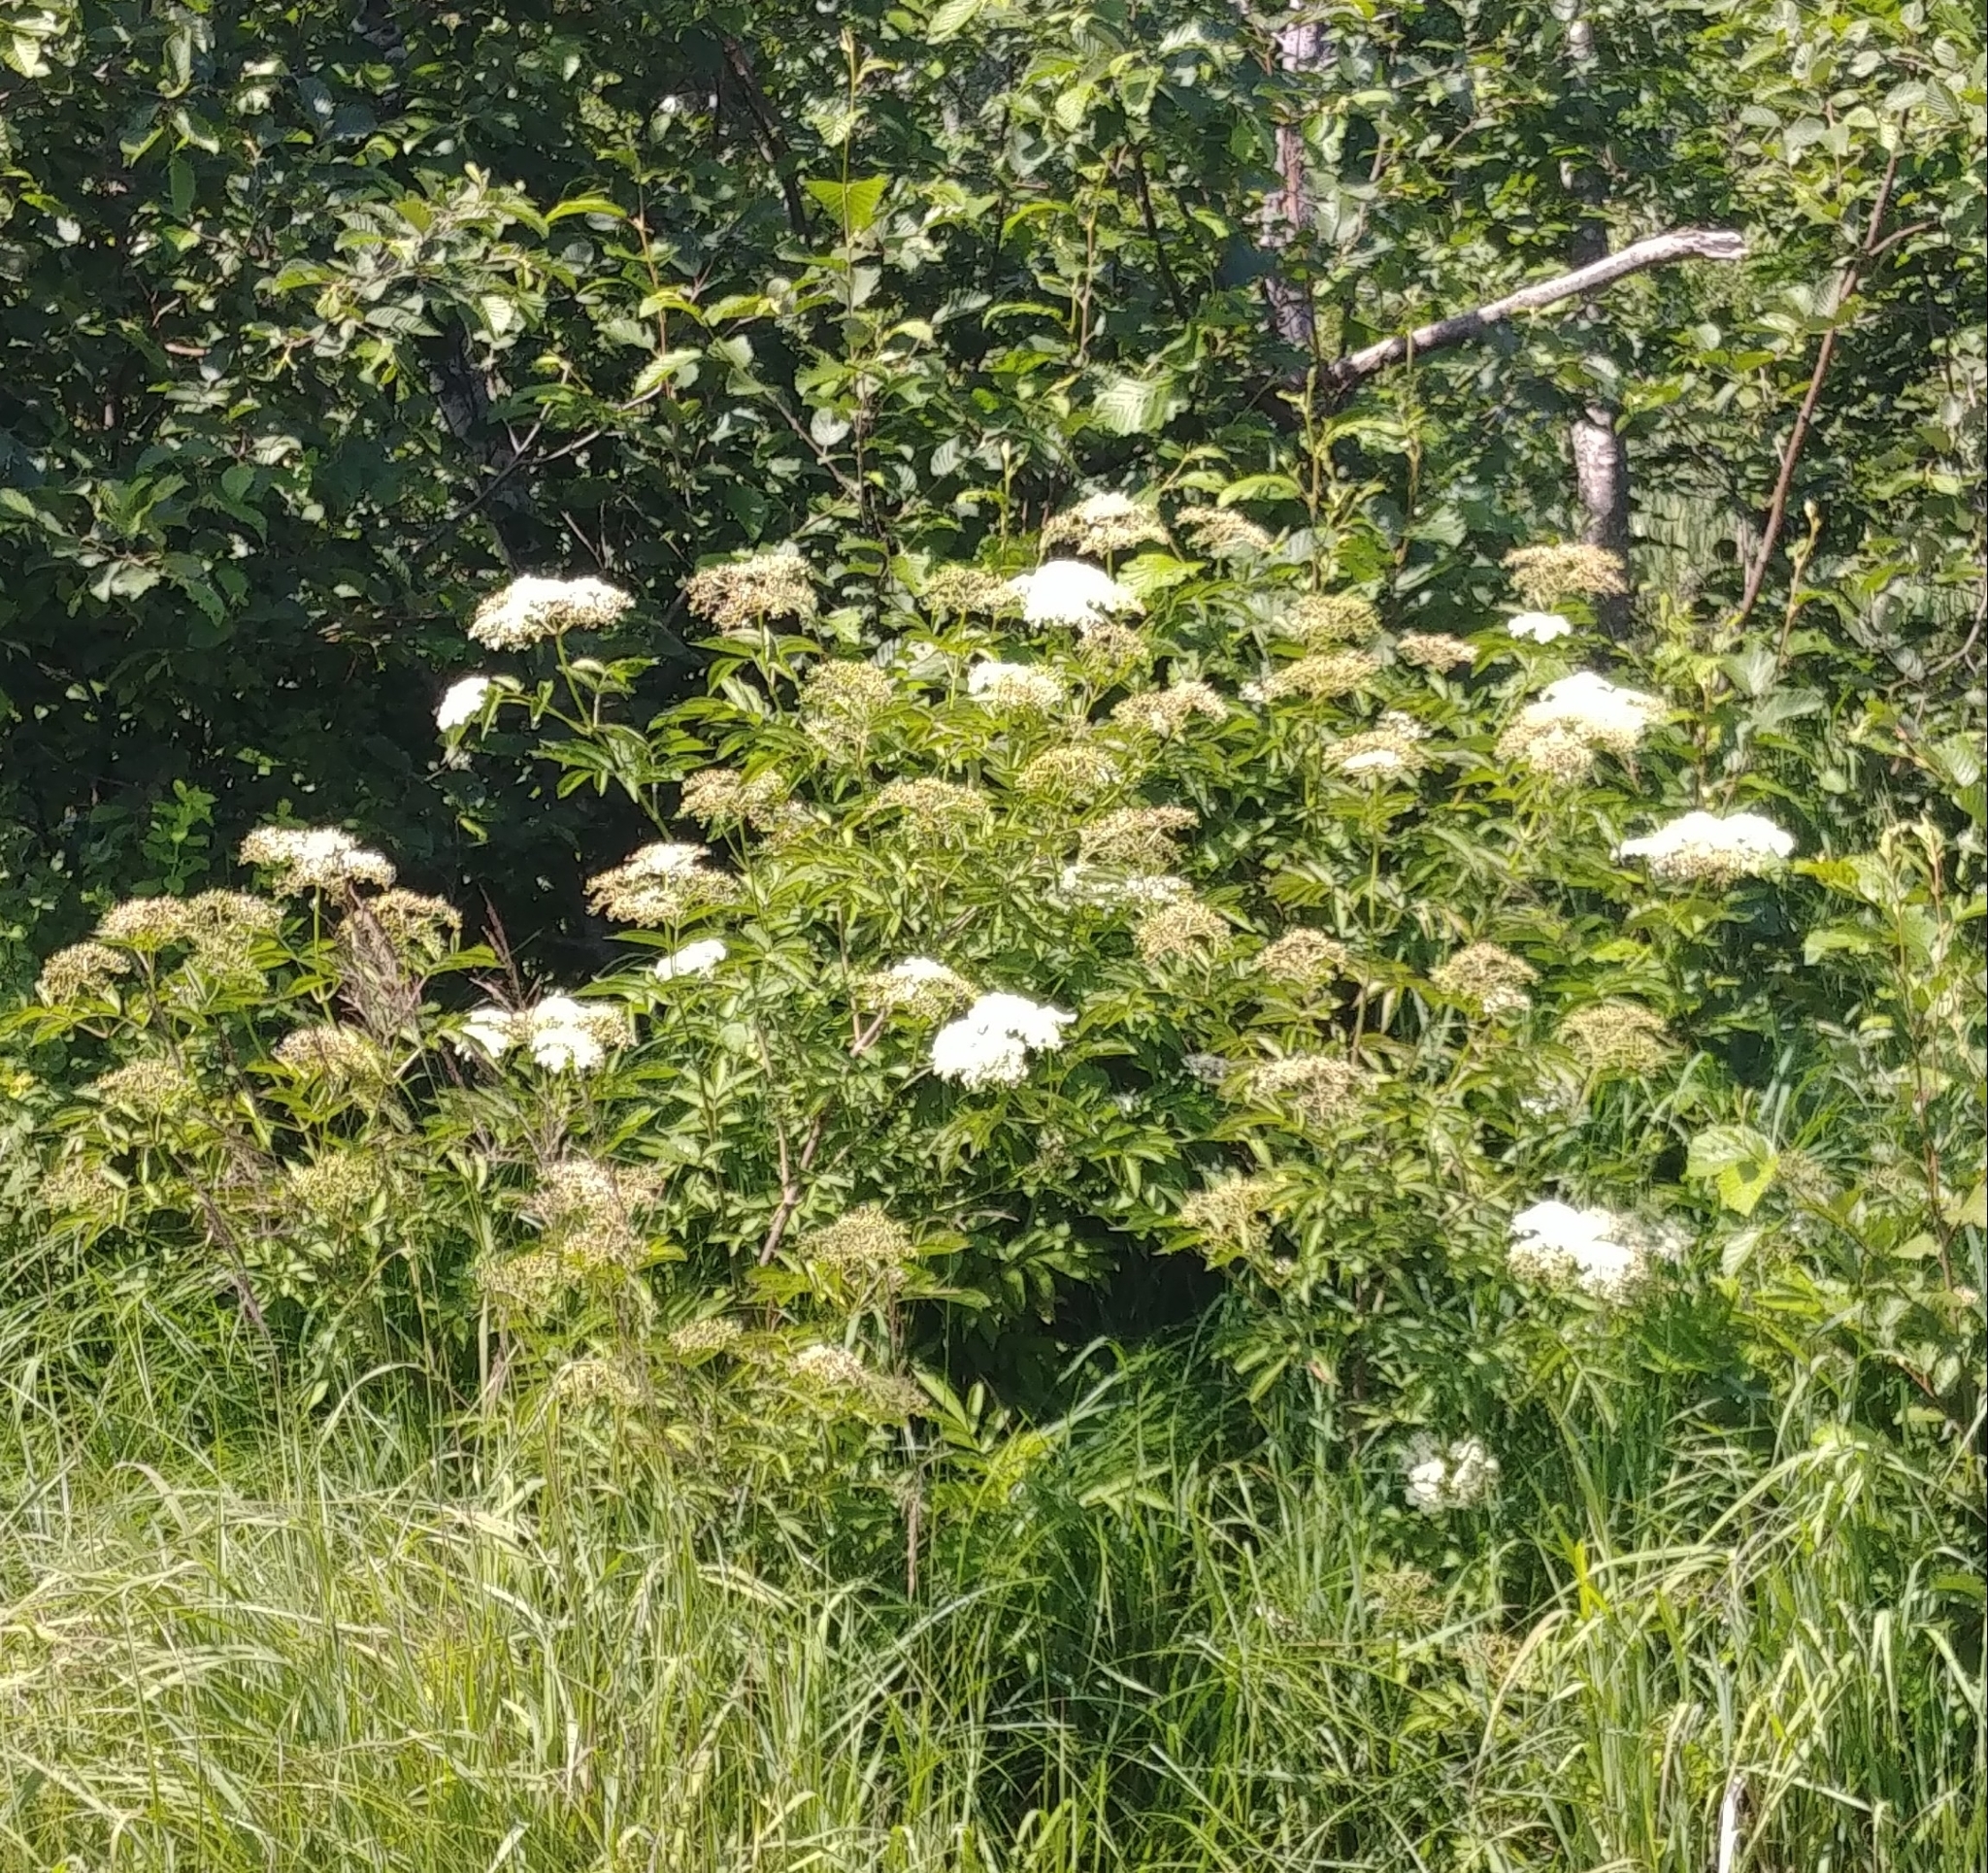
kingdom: Plantae
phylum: Tracheophyta
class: Magnoliopsida
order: Dipsacales
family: Viburnaceae
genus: Sambucus
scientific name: Sambucus canadensis
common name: American elder
